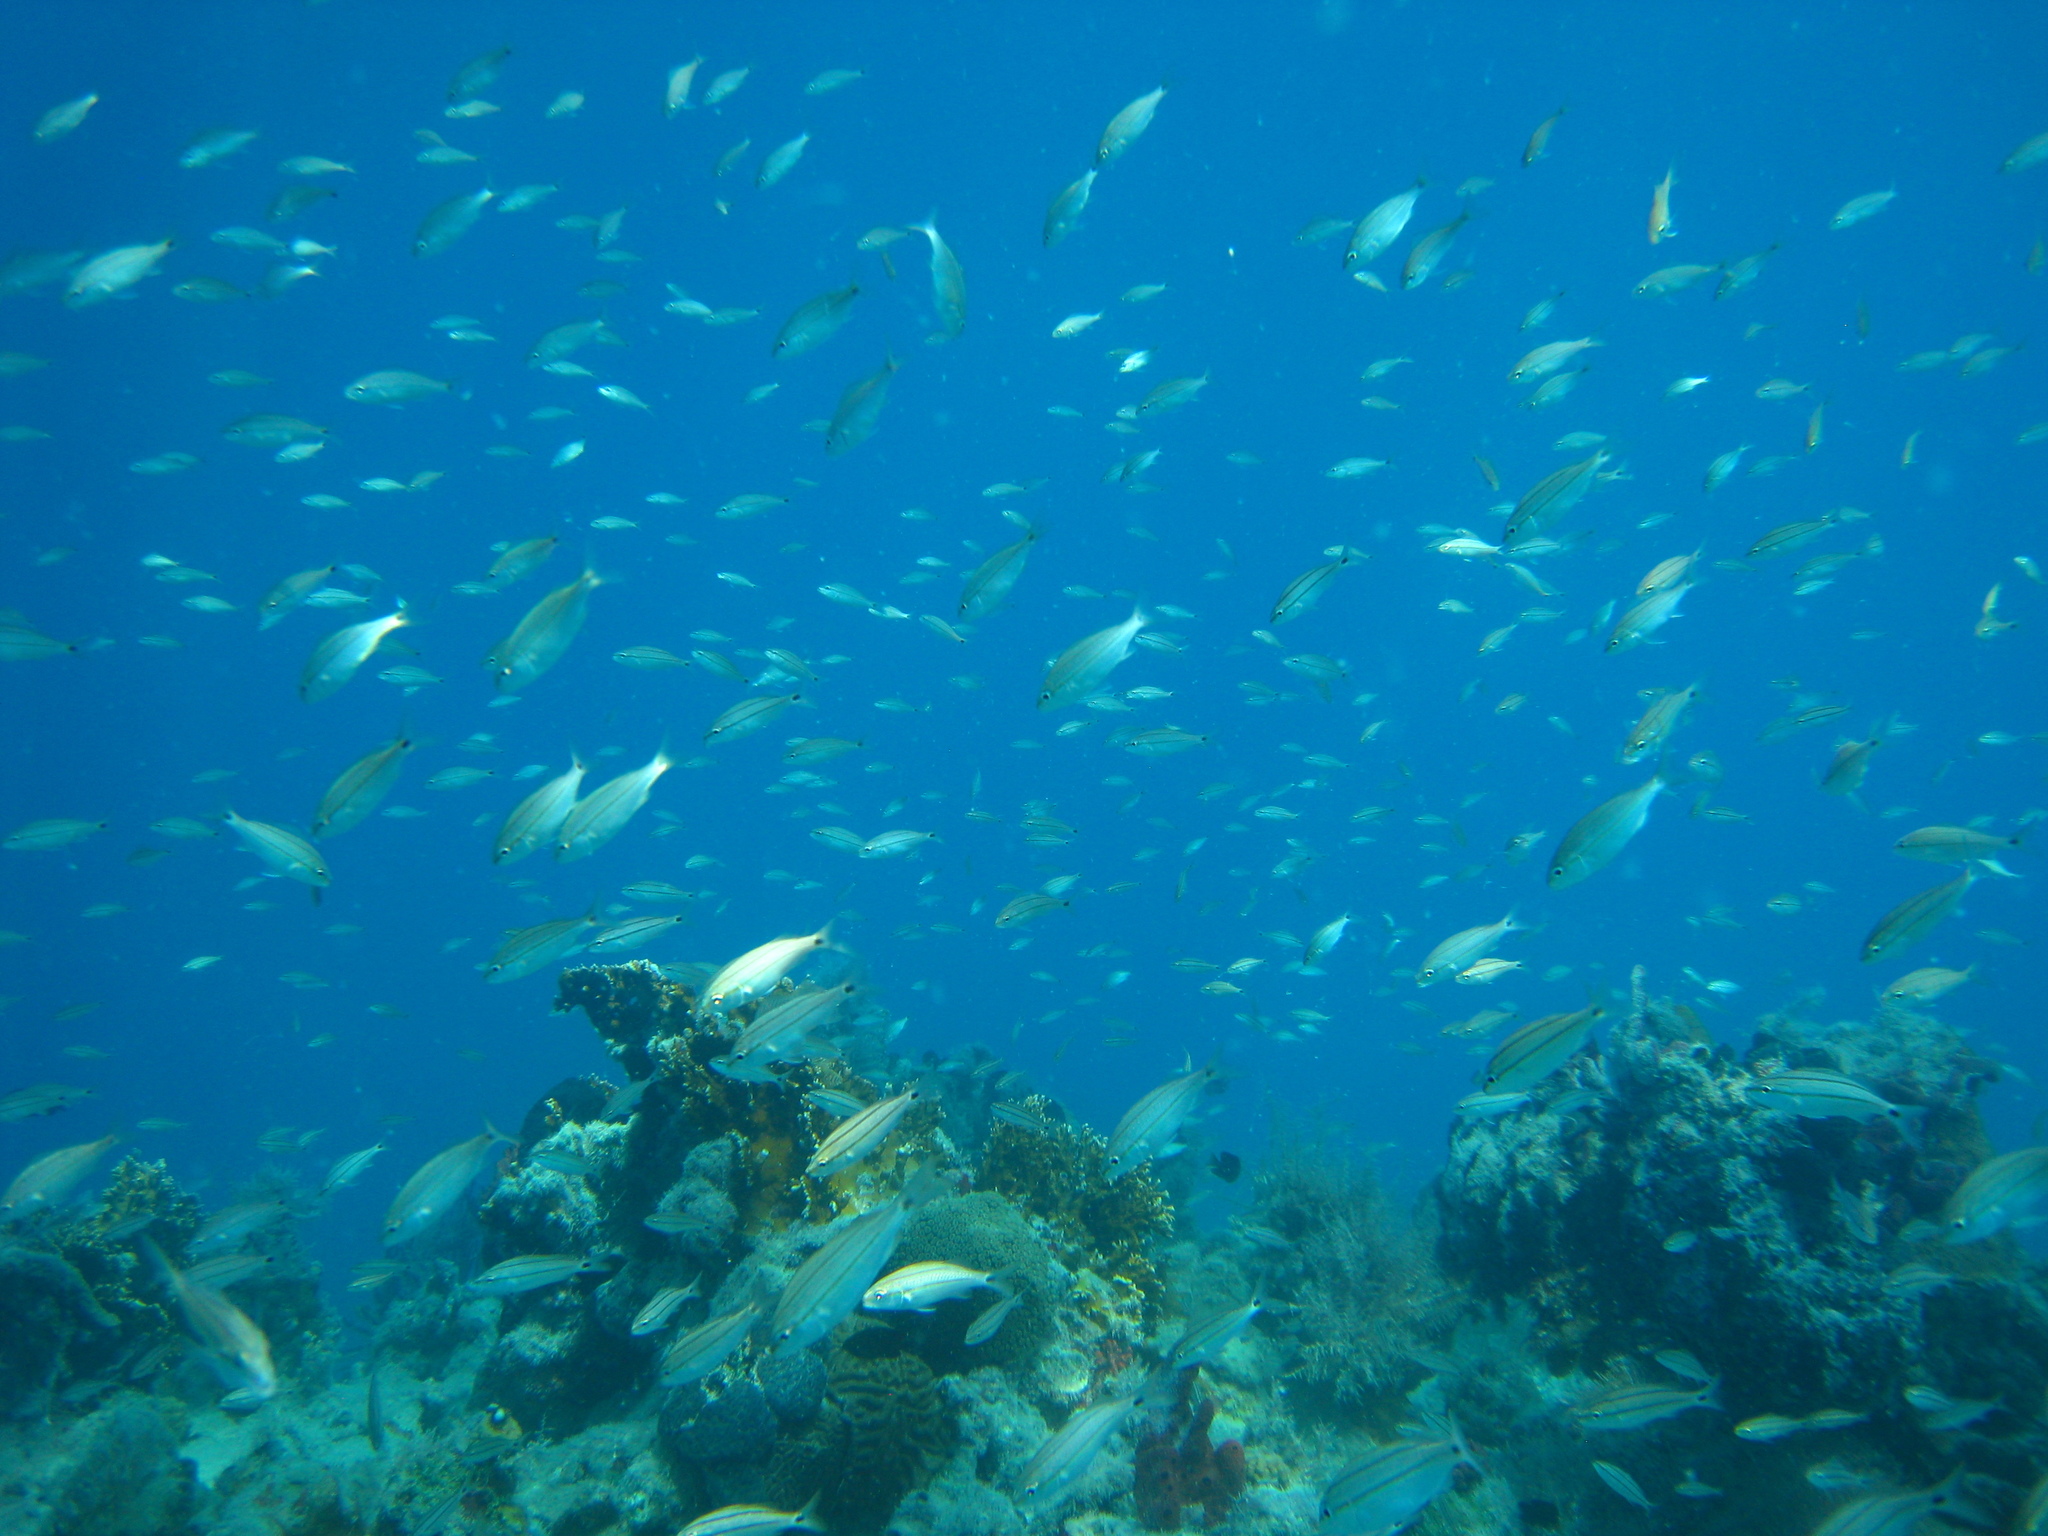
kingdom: Animalia
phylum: Chordata
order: Perciformes
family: Haemulidae
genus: Haemulon
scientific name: Haemulon aurolineatum
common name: Tomtate
